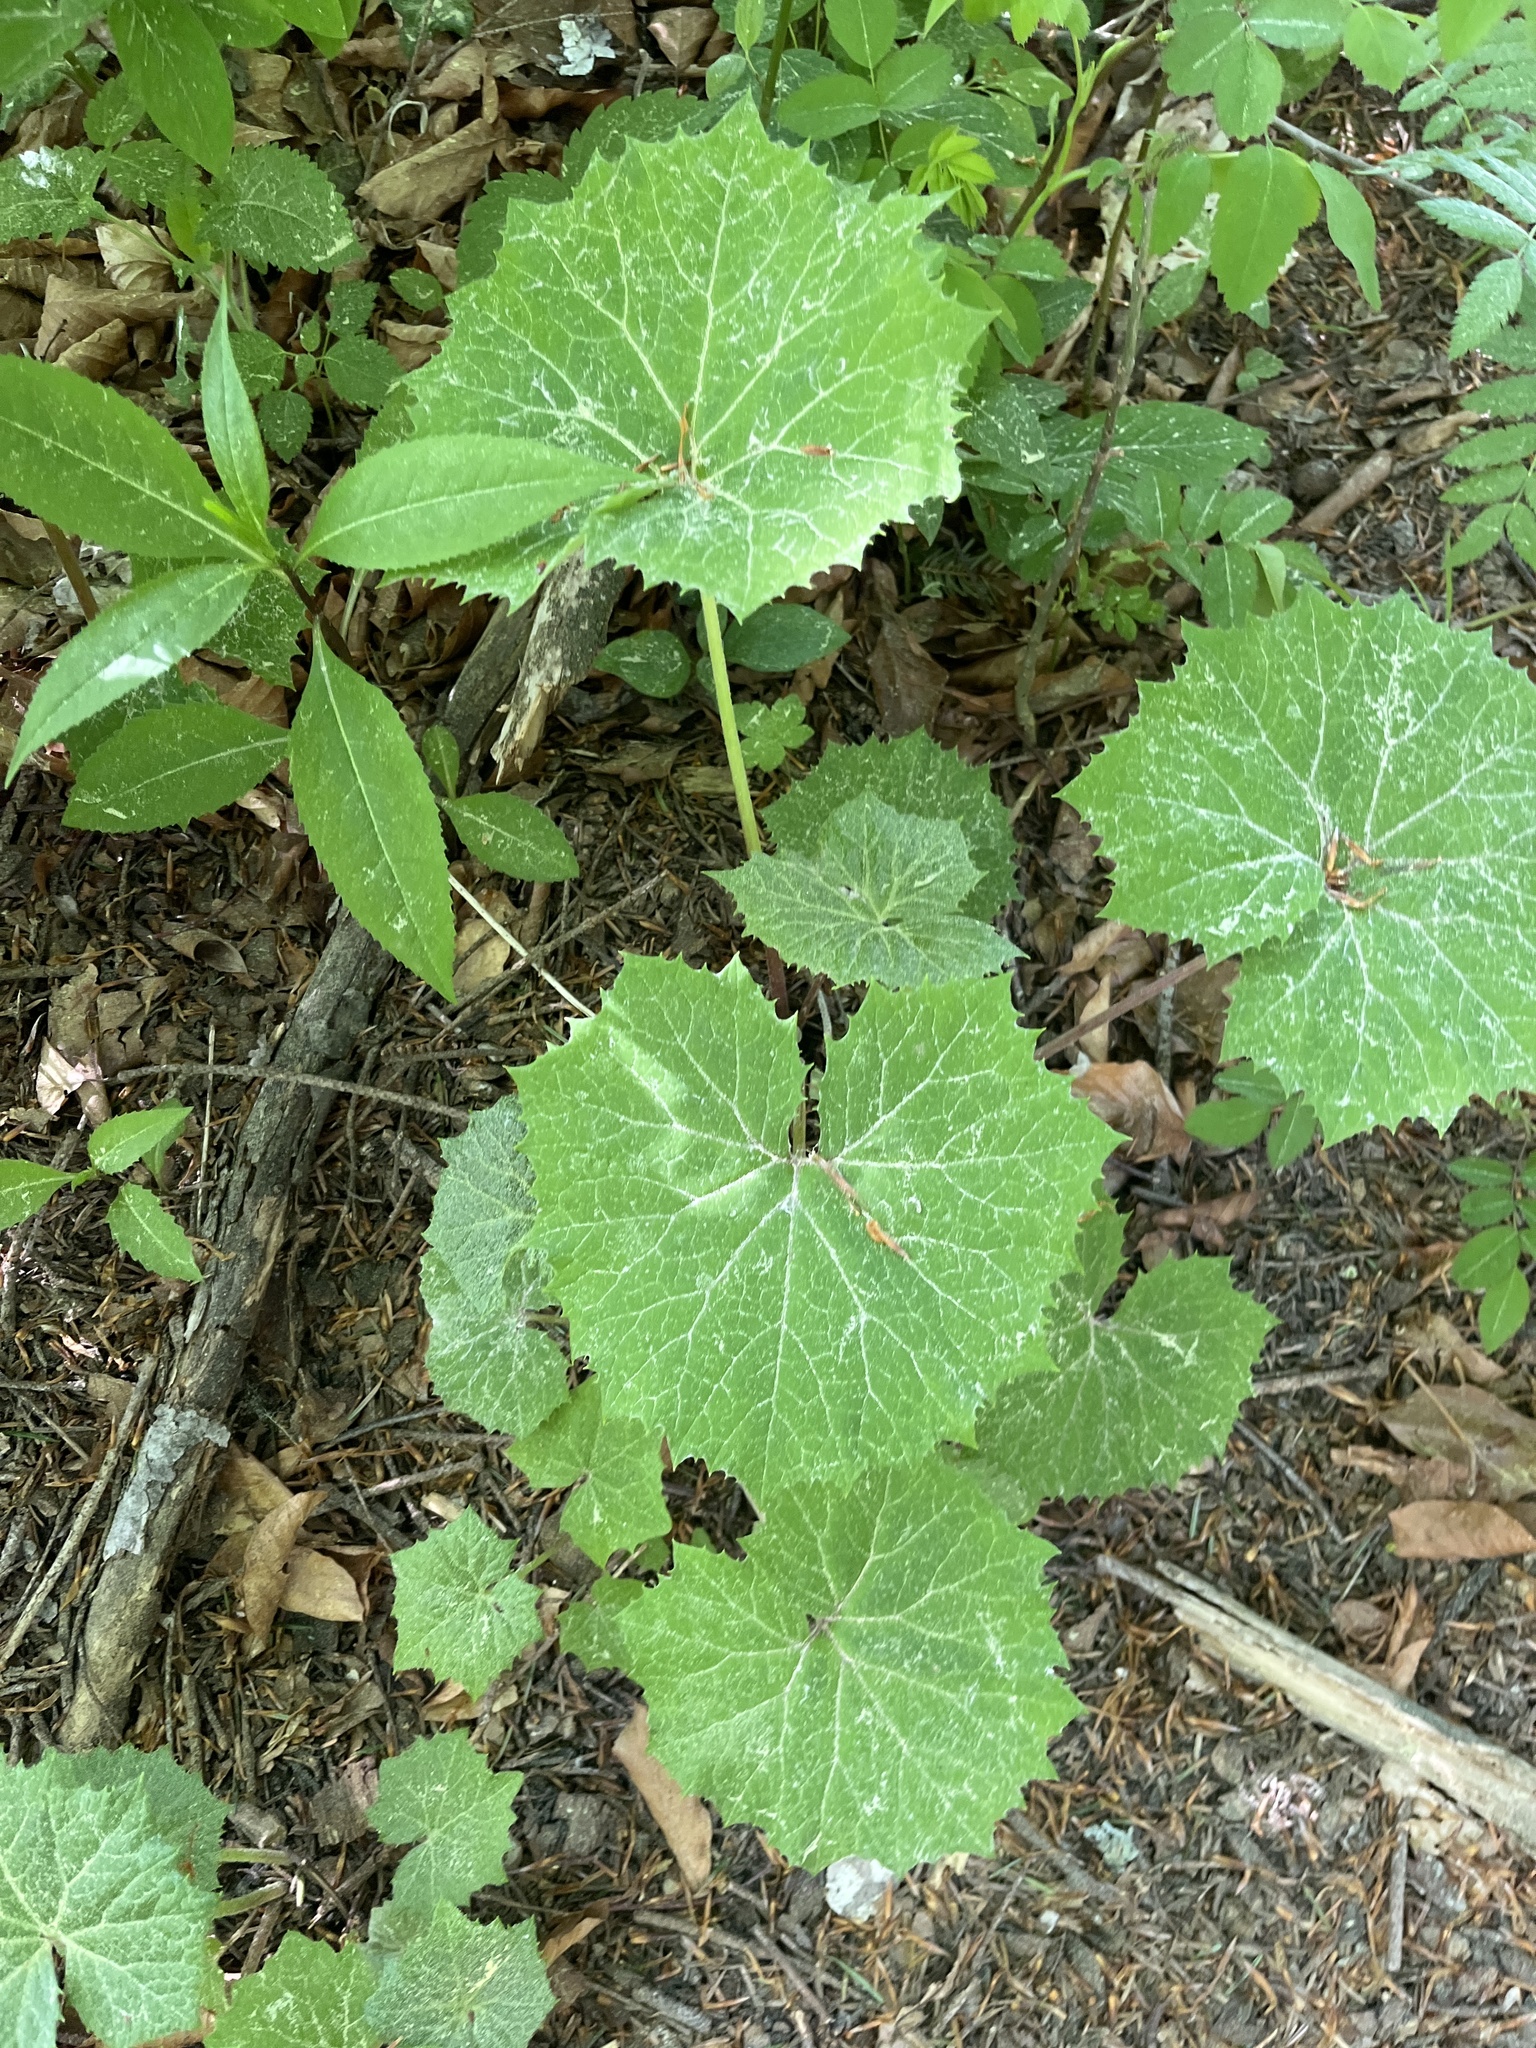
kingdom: Plantae
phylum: Tracheophyta
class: Magnoliopsida
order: Asterales
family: Asteraceae
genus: Petasites
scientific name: Petasites albus
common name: White butterbur
